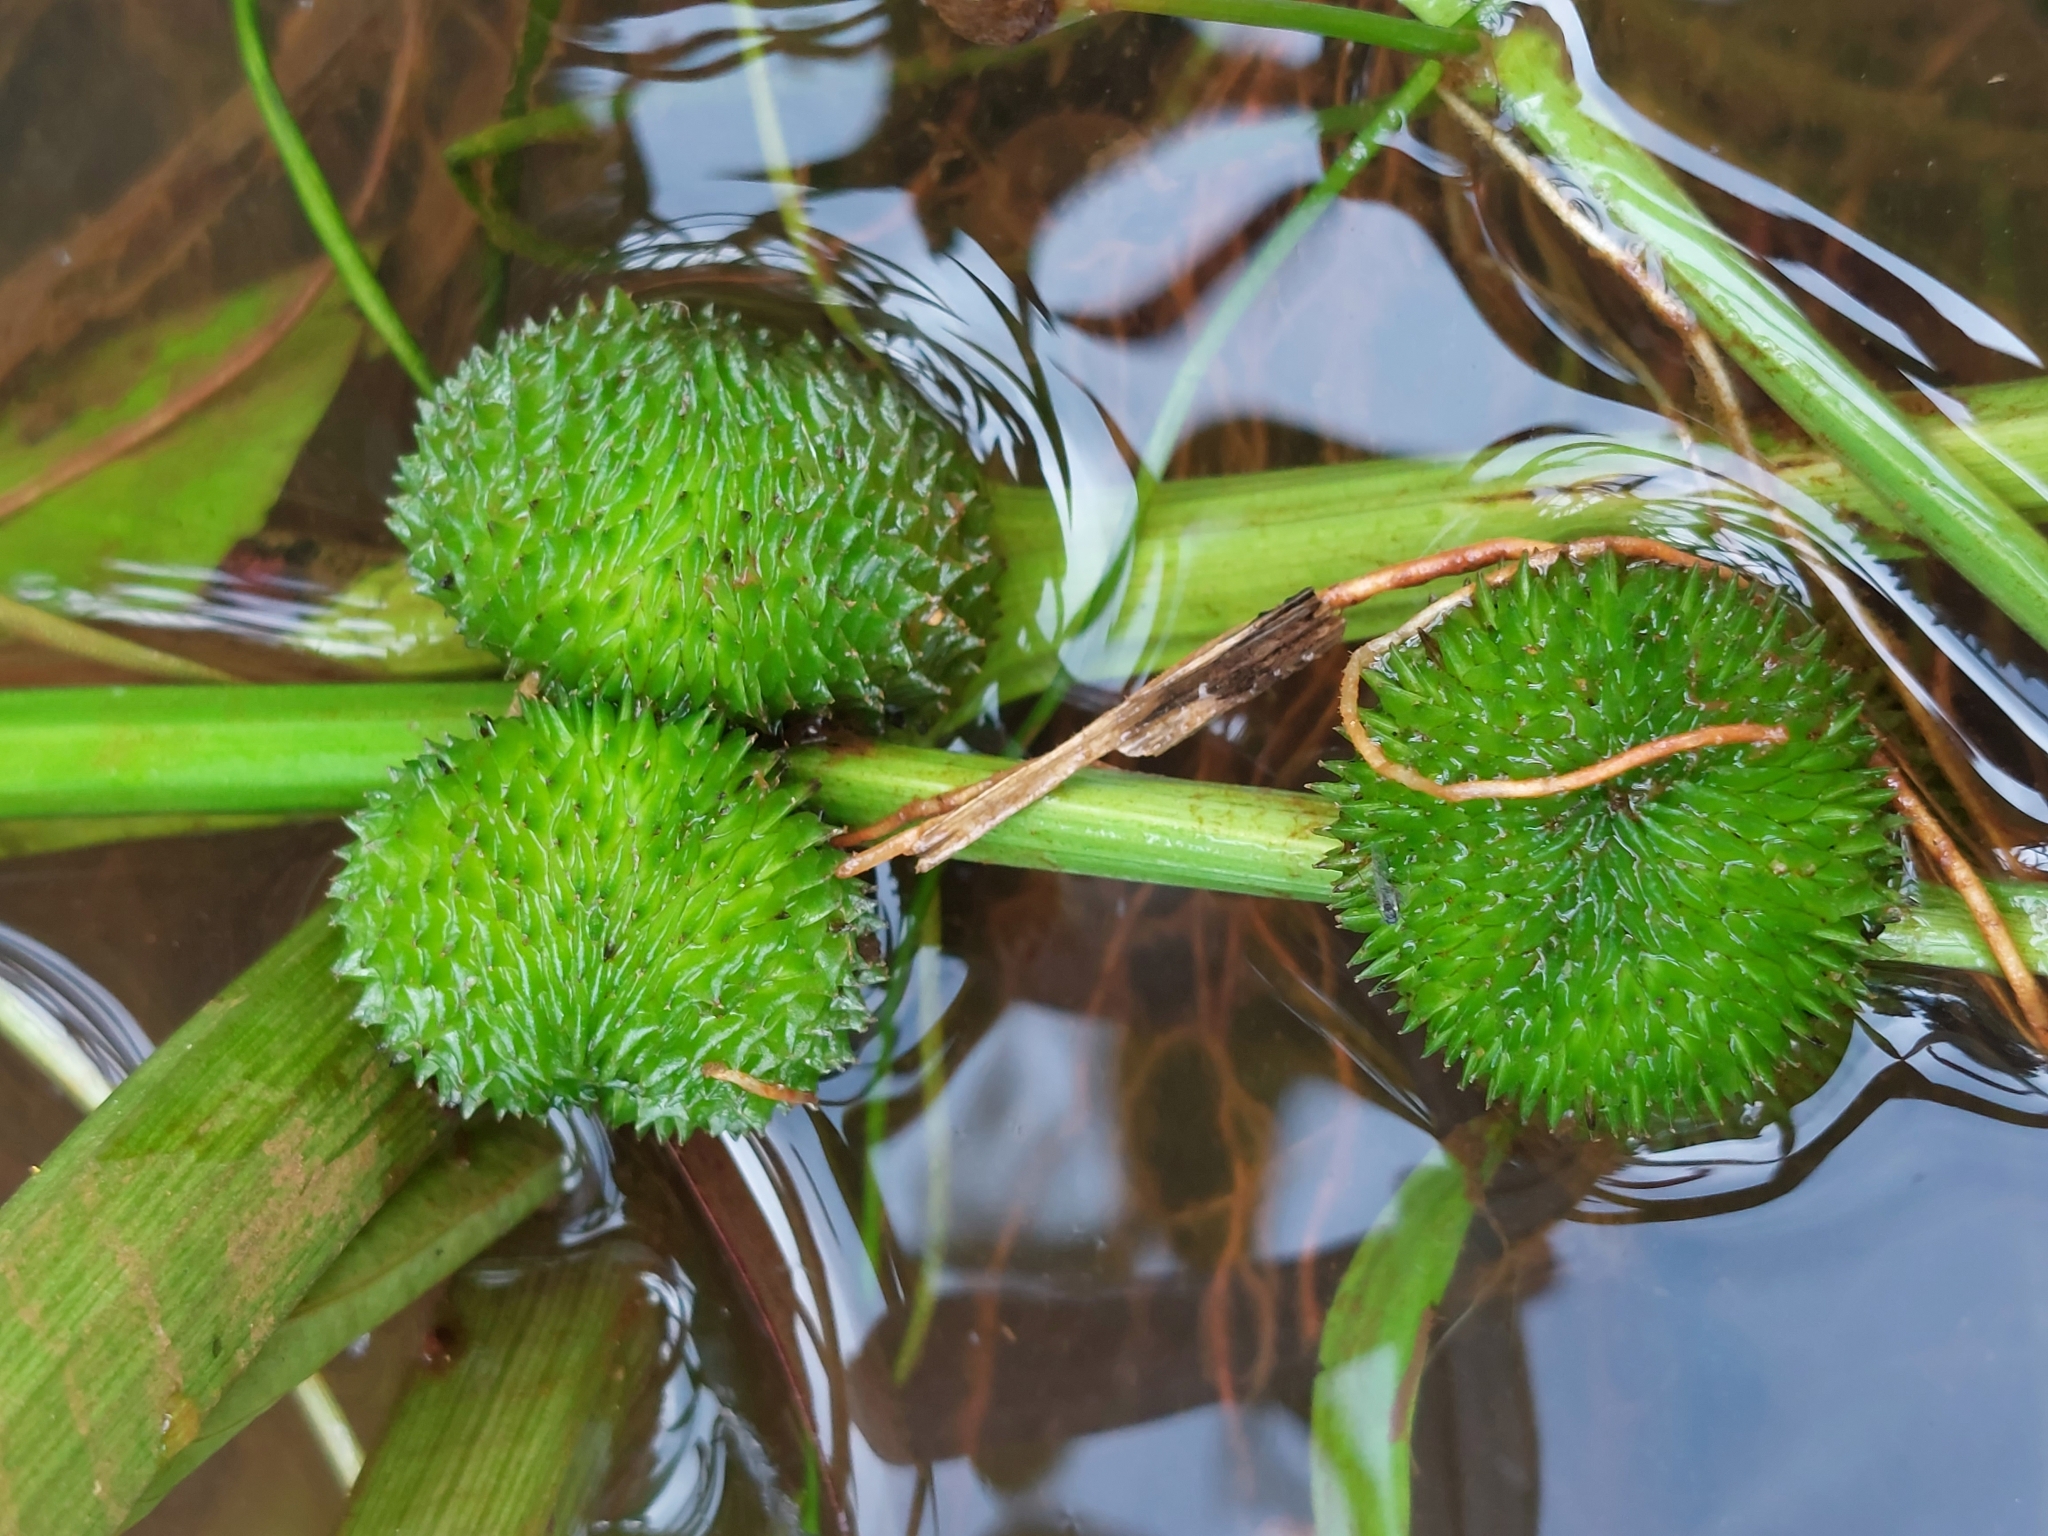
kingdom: Plantae
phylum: Tracheophyta
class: Liliopsida
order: Alismatales
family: Alismataceae
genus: Sagittaria
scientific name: Sagittaria sagittifolia
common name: Arrowhead
